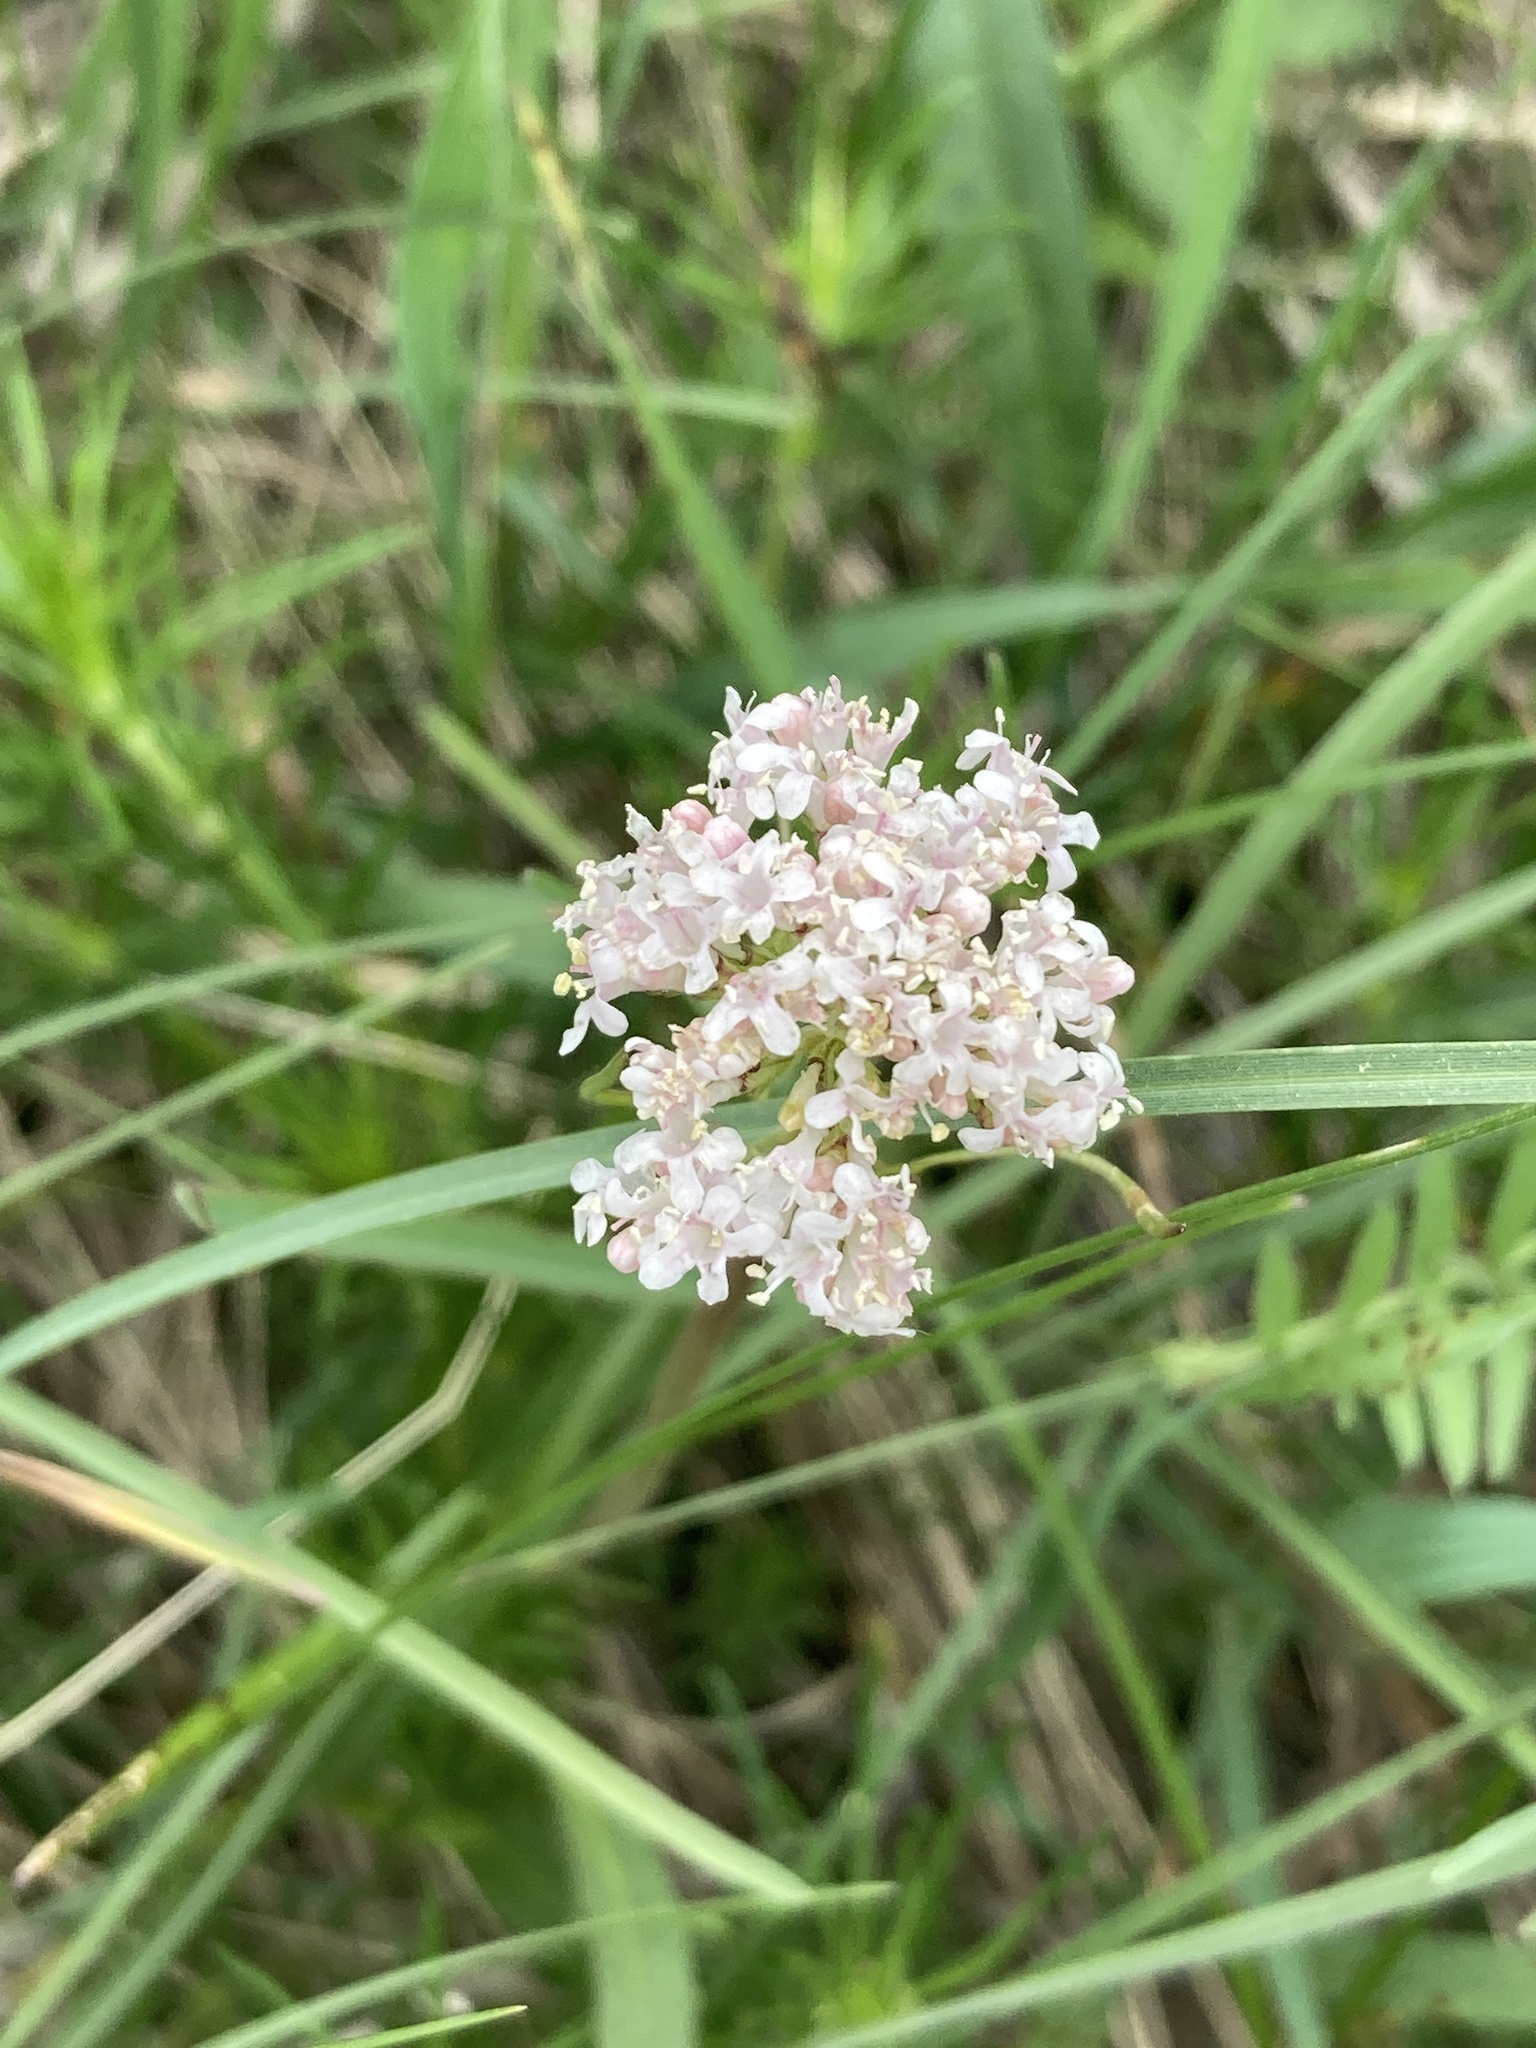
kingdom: Plantae
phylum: Tracheophyta
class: Magnoliopsida
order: Dipsacales
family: Caprifoliaceae
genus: Valeriana
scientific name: Valeriana tuberosa
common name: Tuberous valerian
